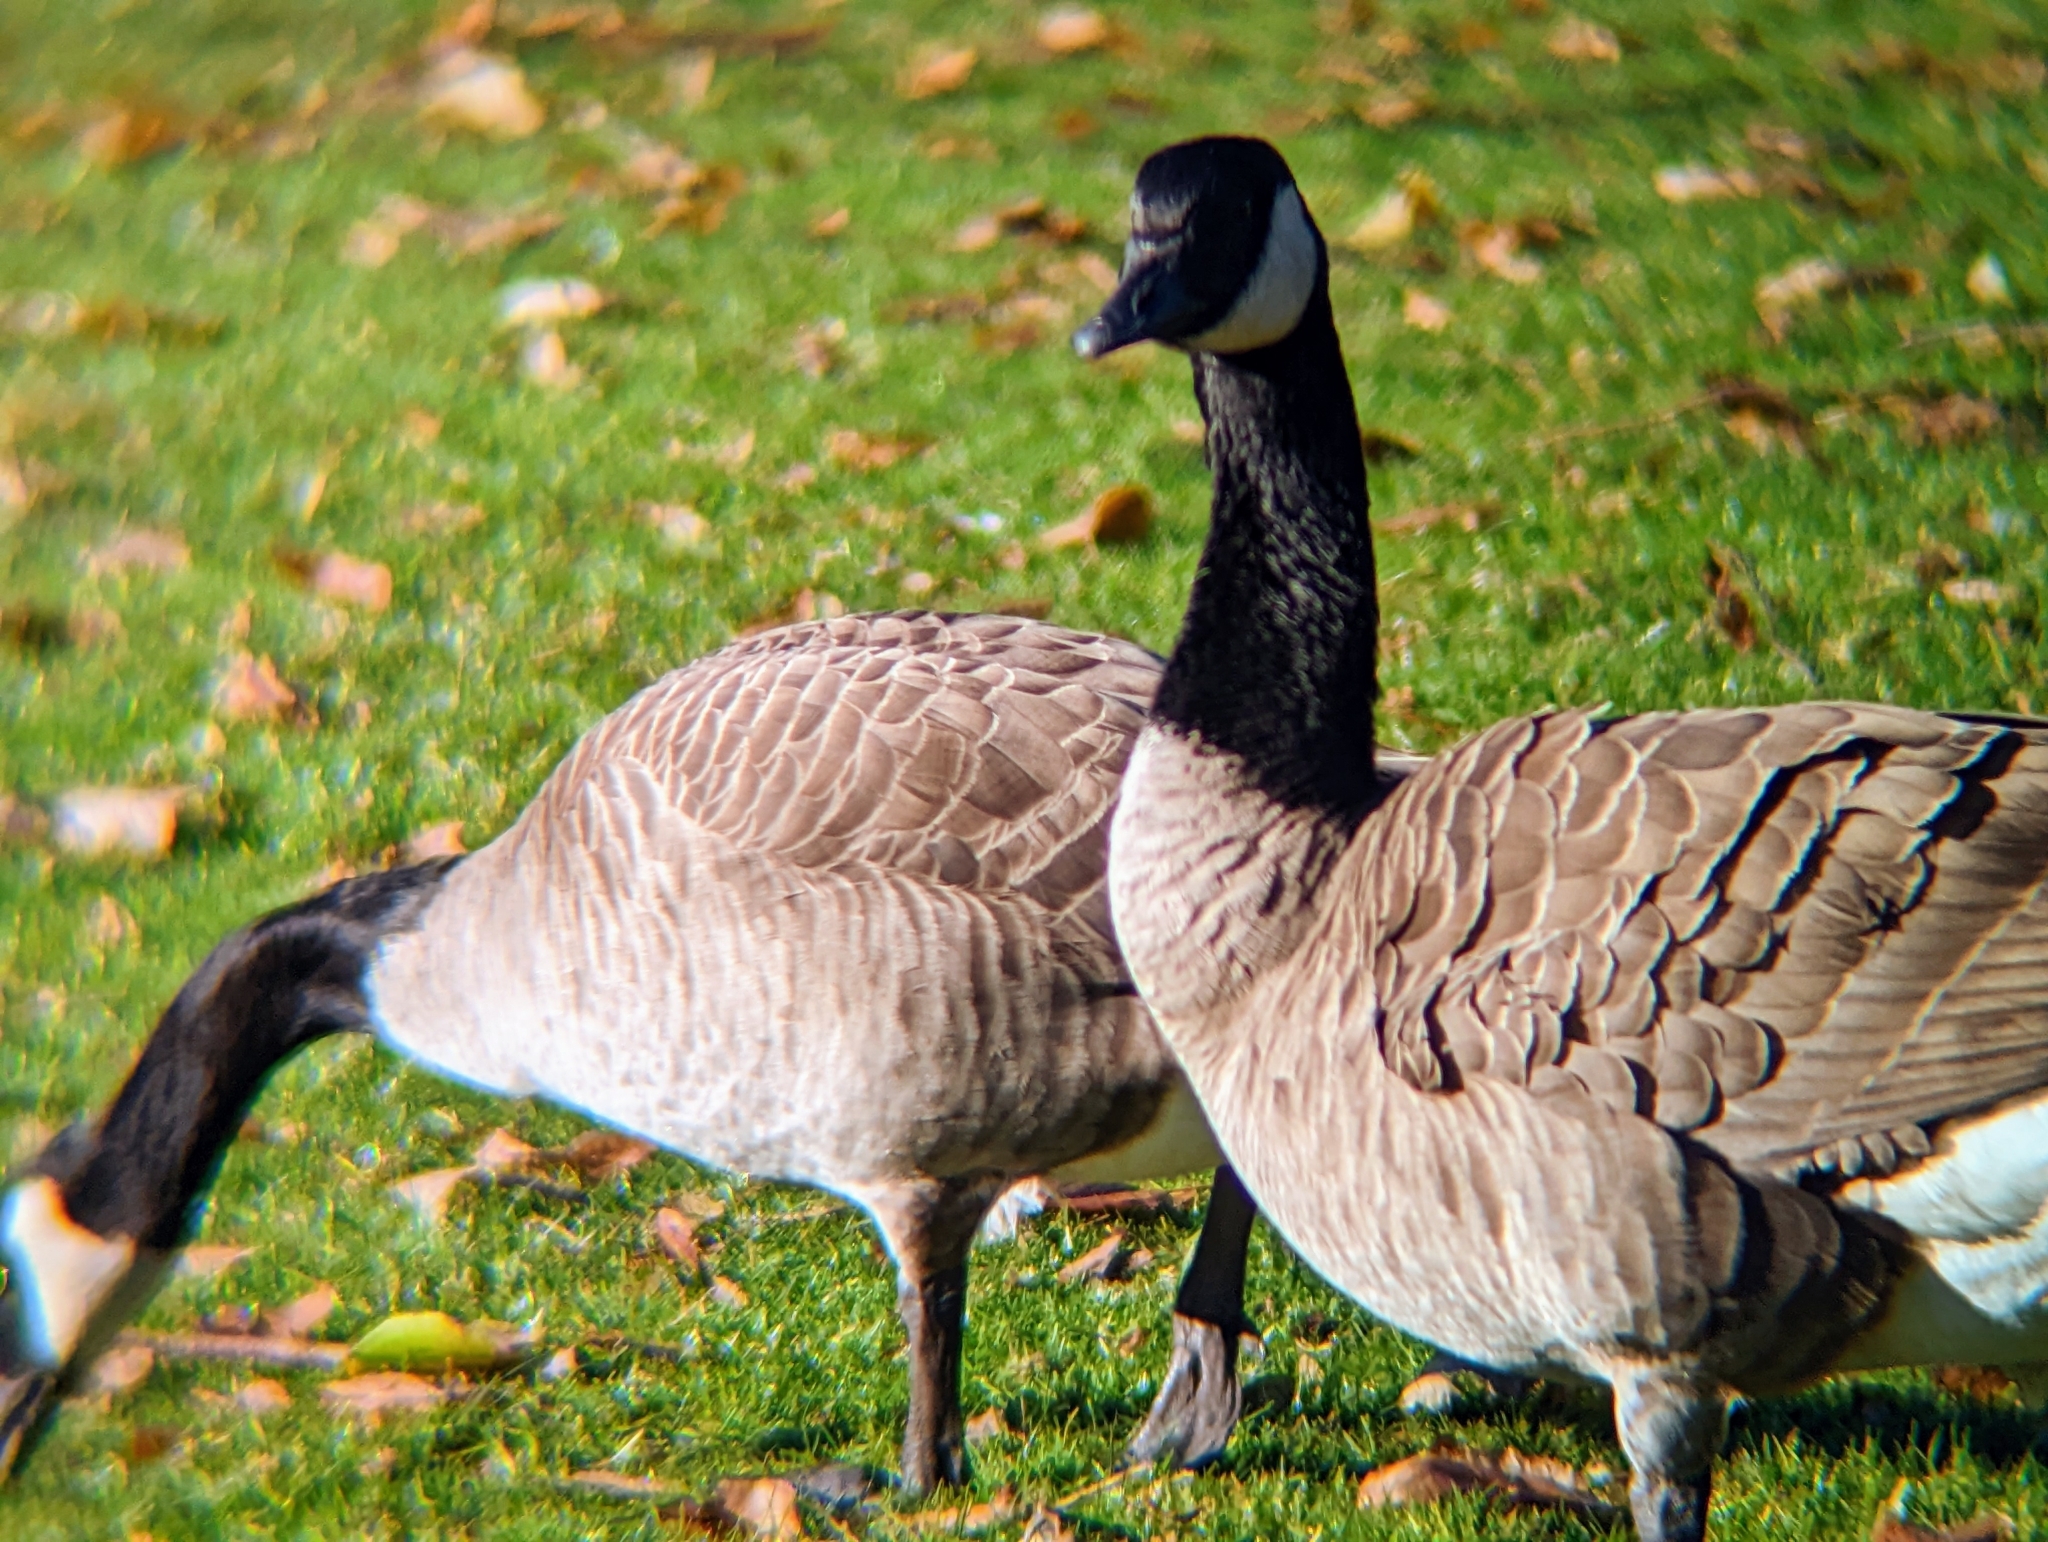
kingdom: Animalia
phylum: Chordata
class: Aves
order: Anseriformes
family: Anatidae
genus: Branta
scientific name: Branta canadensis
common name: Canada goose
